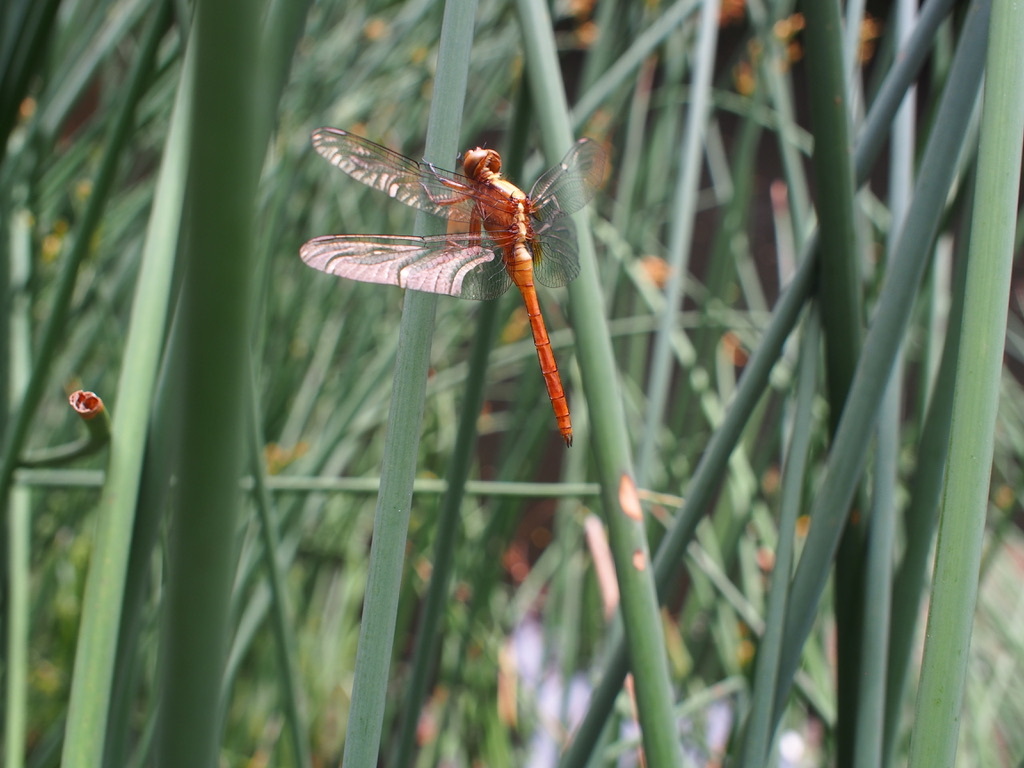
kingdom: Animalia
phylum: Arthropoda
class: Insecta
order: Odonata
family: Libellulidae
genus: Orthetrum
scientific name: Orthetrum villosovittatum
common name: Firery skimmer
